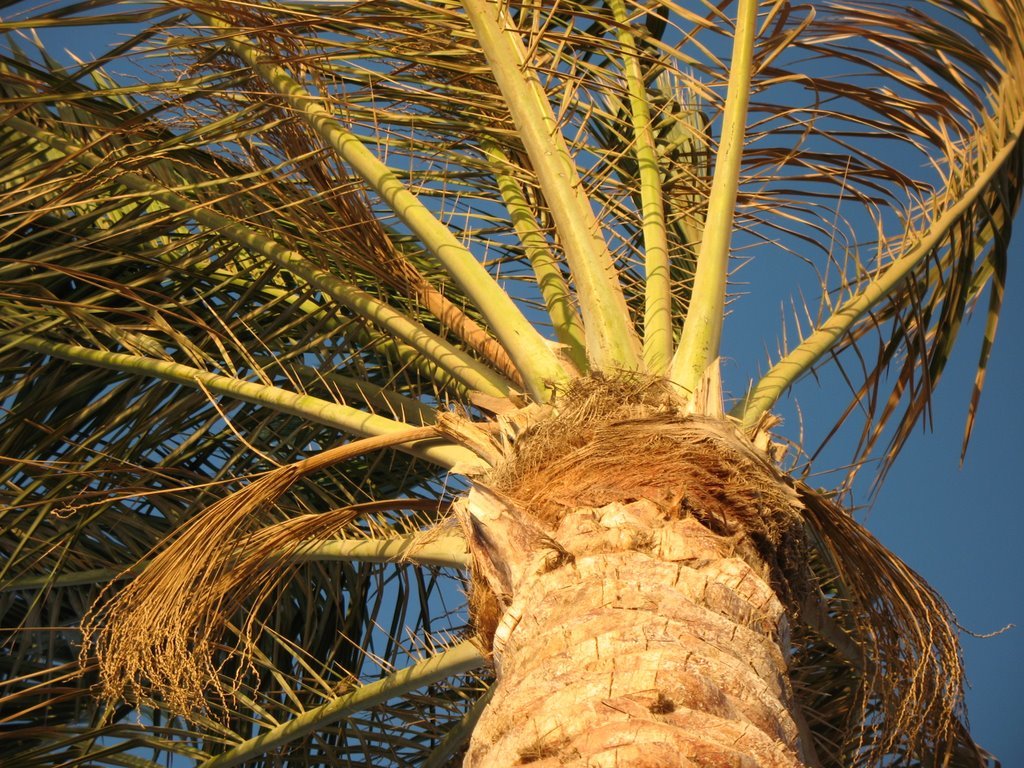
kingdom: Plantae
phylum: Tracheophyta
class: Liliopsida
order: Arecales
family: Arecaceae
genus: Phoenix
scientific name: Phoenix dactylifera
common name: Date palm
